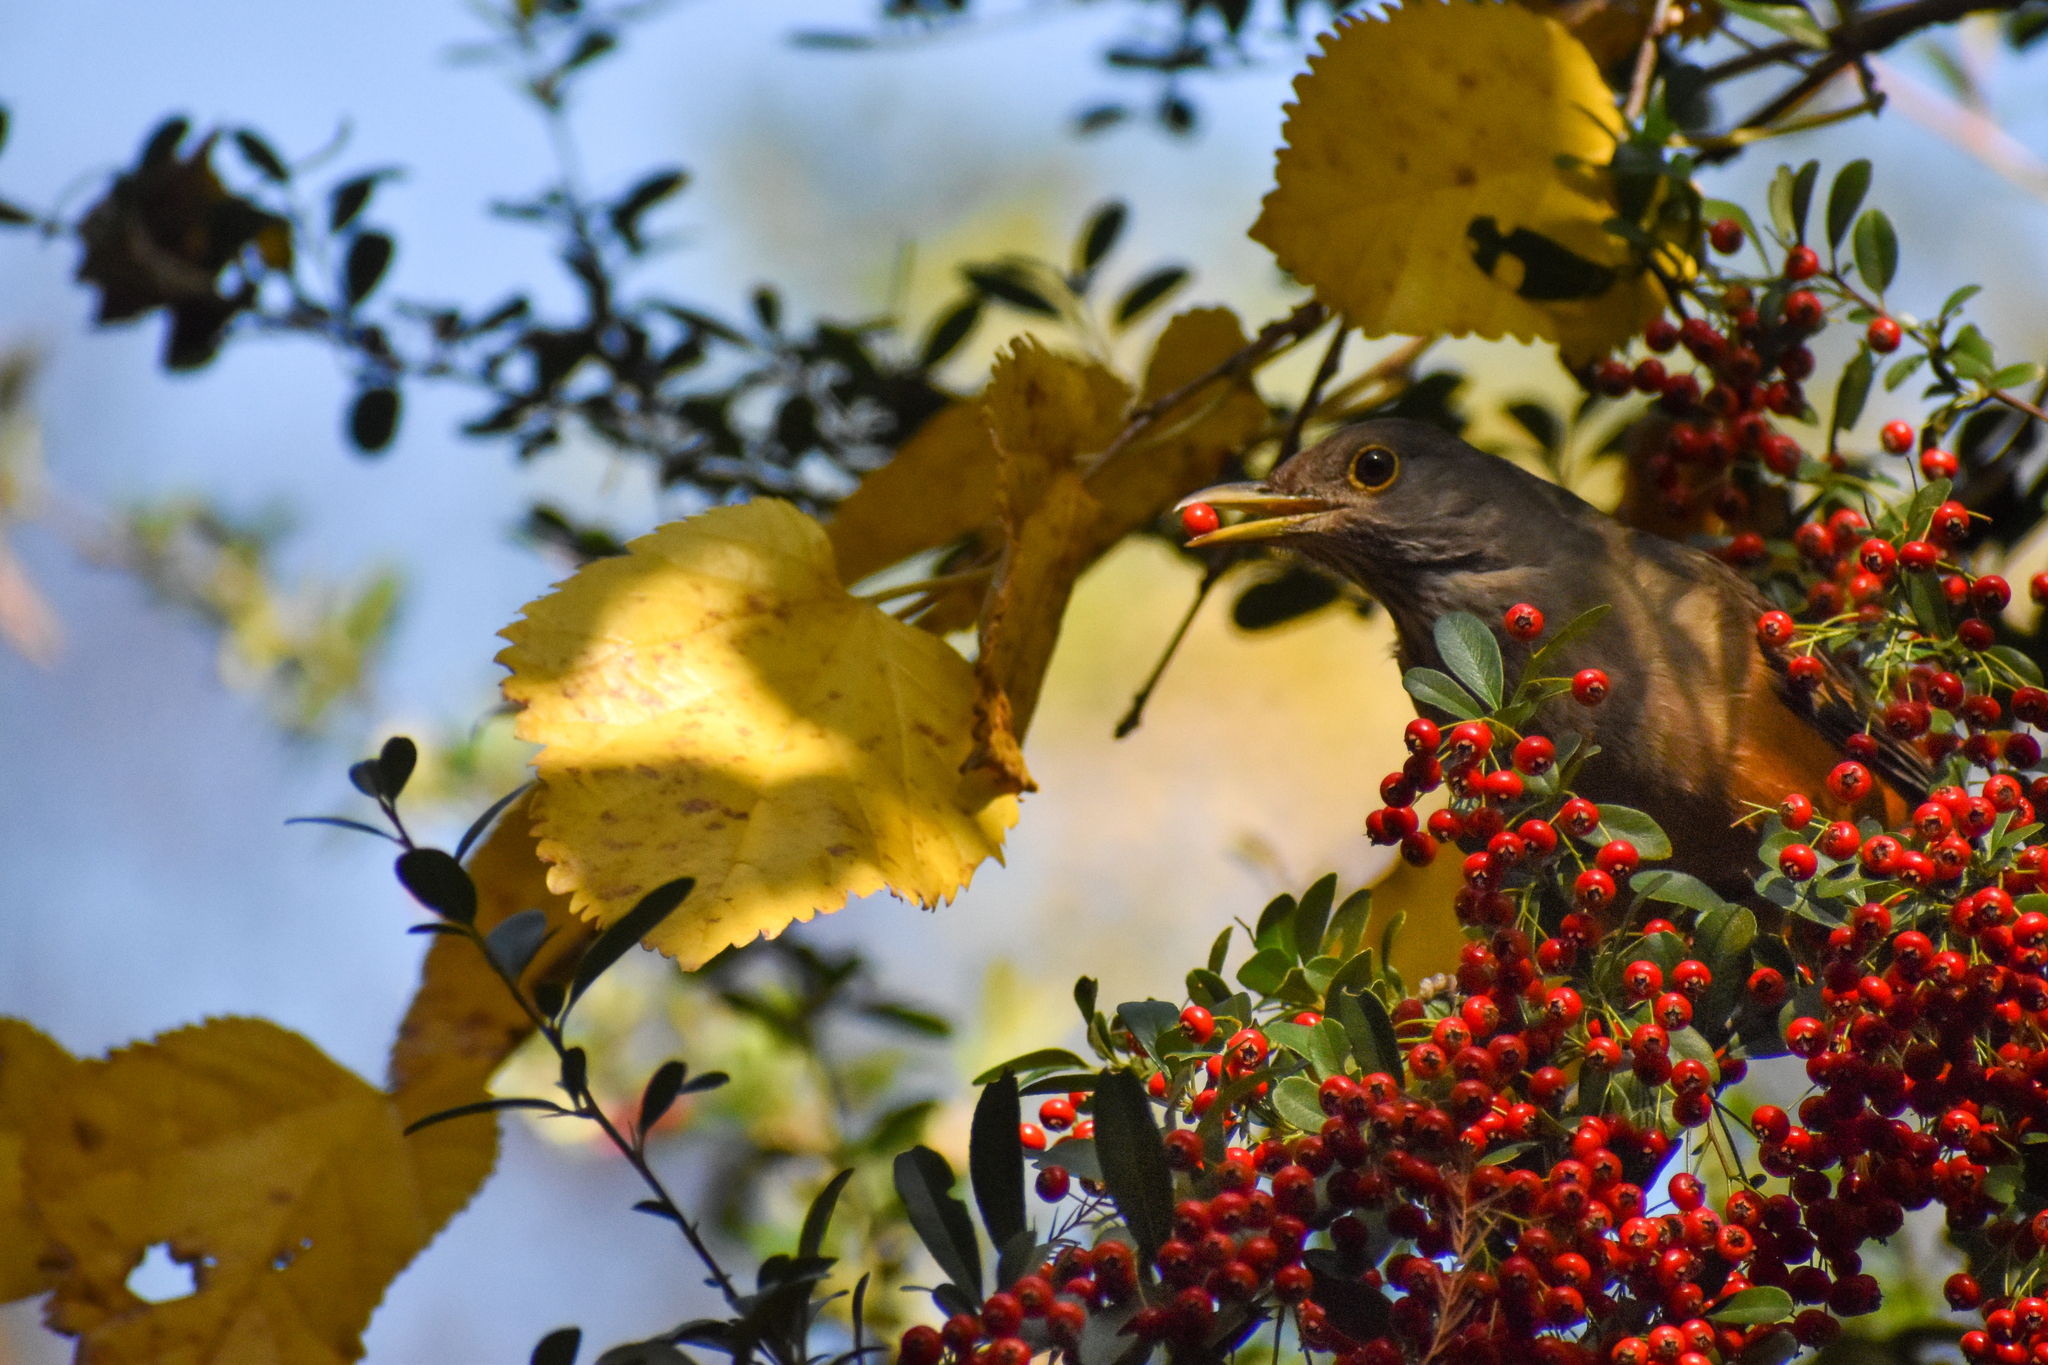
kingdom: Animalia
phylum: Chordata
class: Aves
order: Passeriformes
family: Turdidae
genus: Turdus
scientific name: Turdus rufiventris
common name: Rufous-bellied thrush
